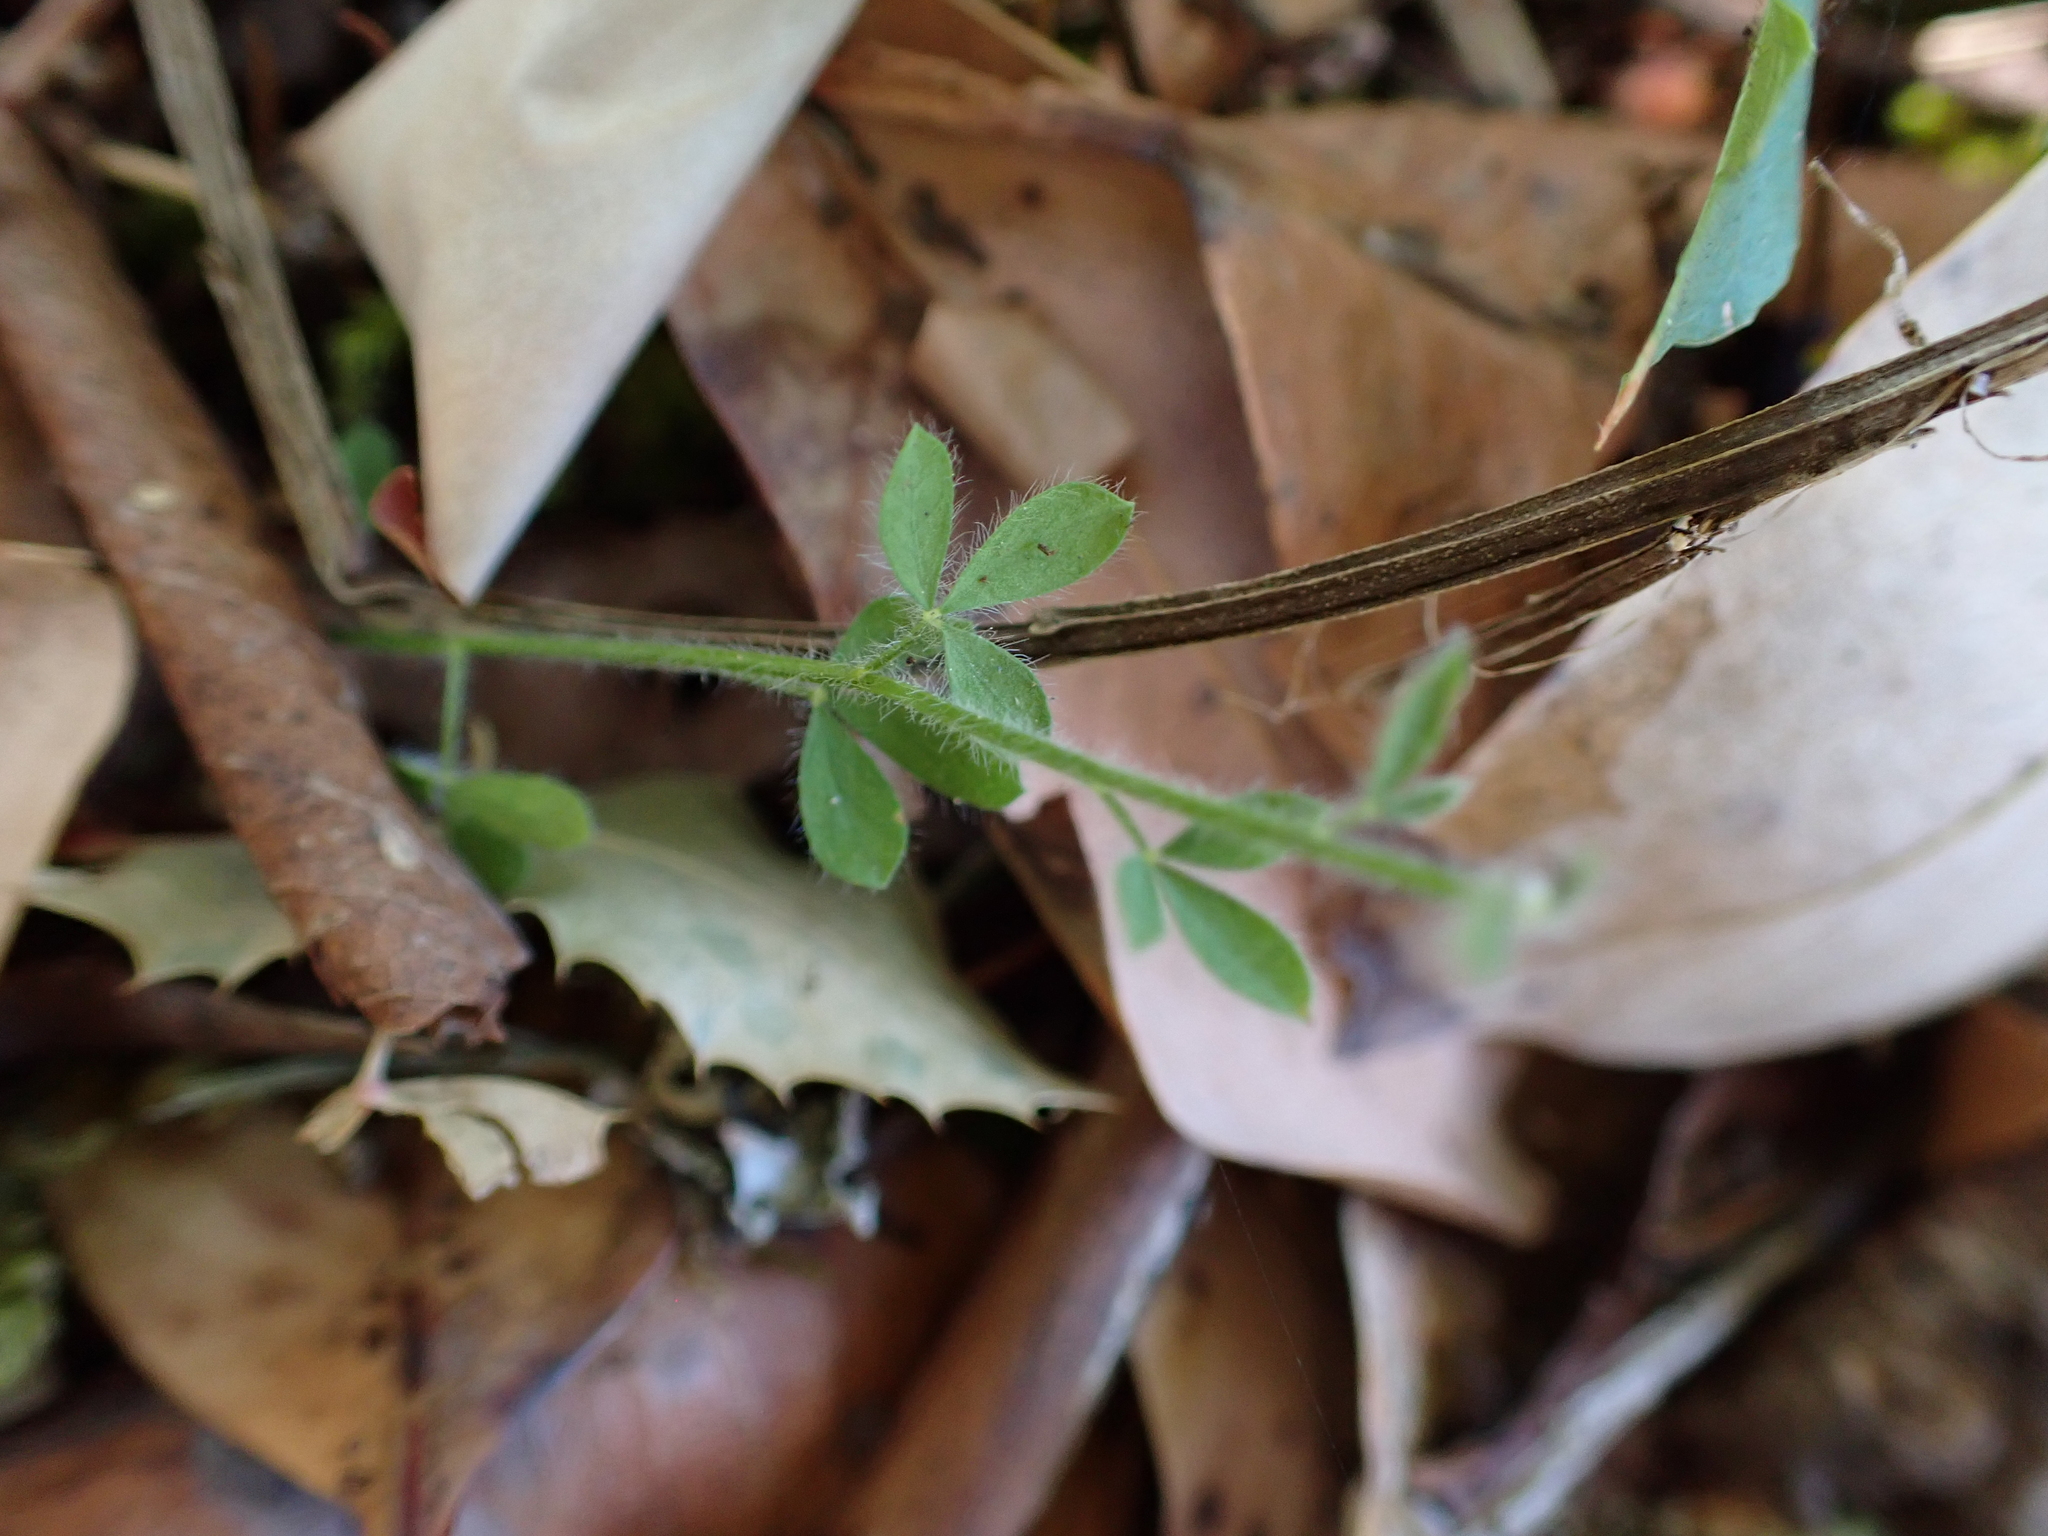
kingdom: Plantae
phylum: Tracheophyta
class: Magnoliopsida
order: Fabales
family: Fabaceae
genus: Cytisus
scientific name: Cytisus scoparius
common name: Scotch broom
